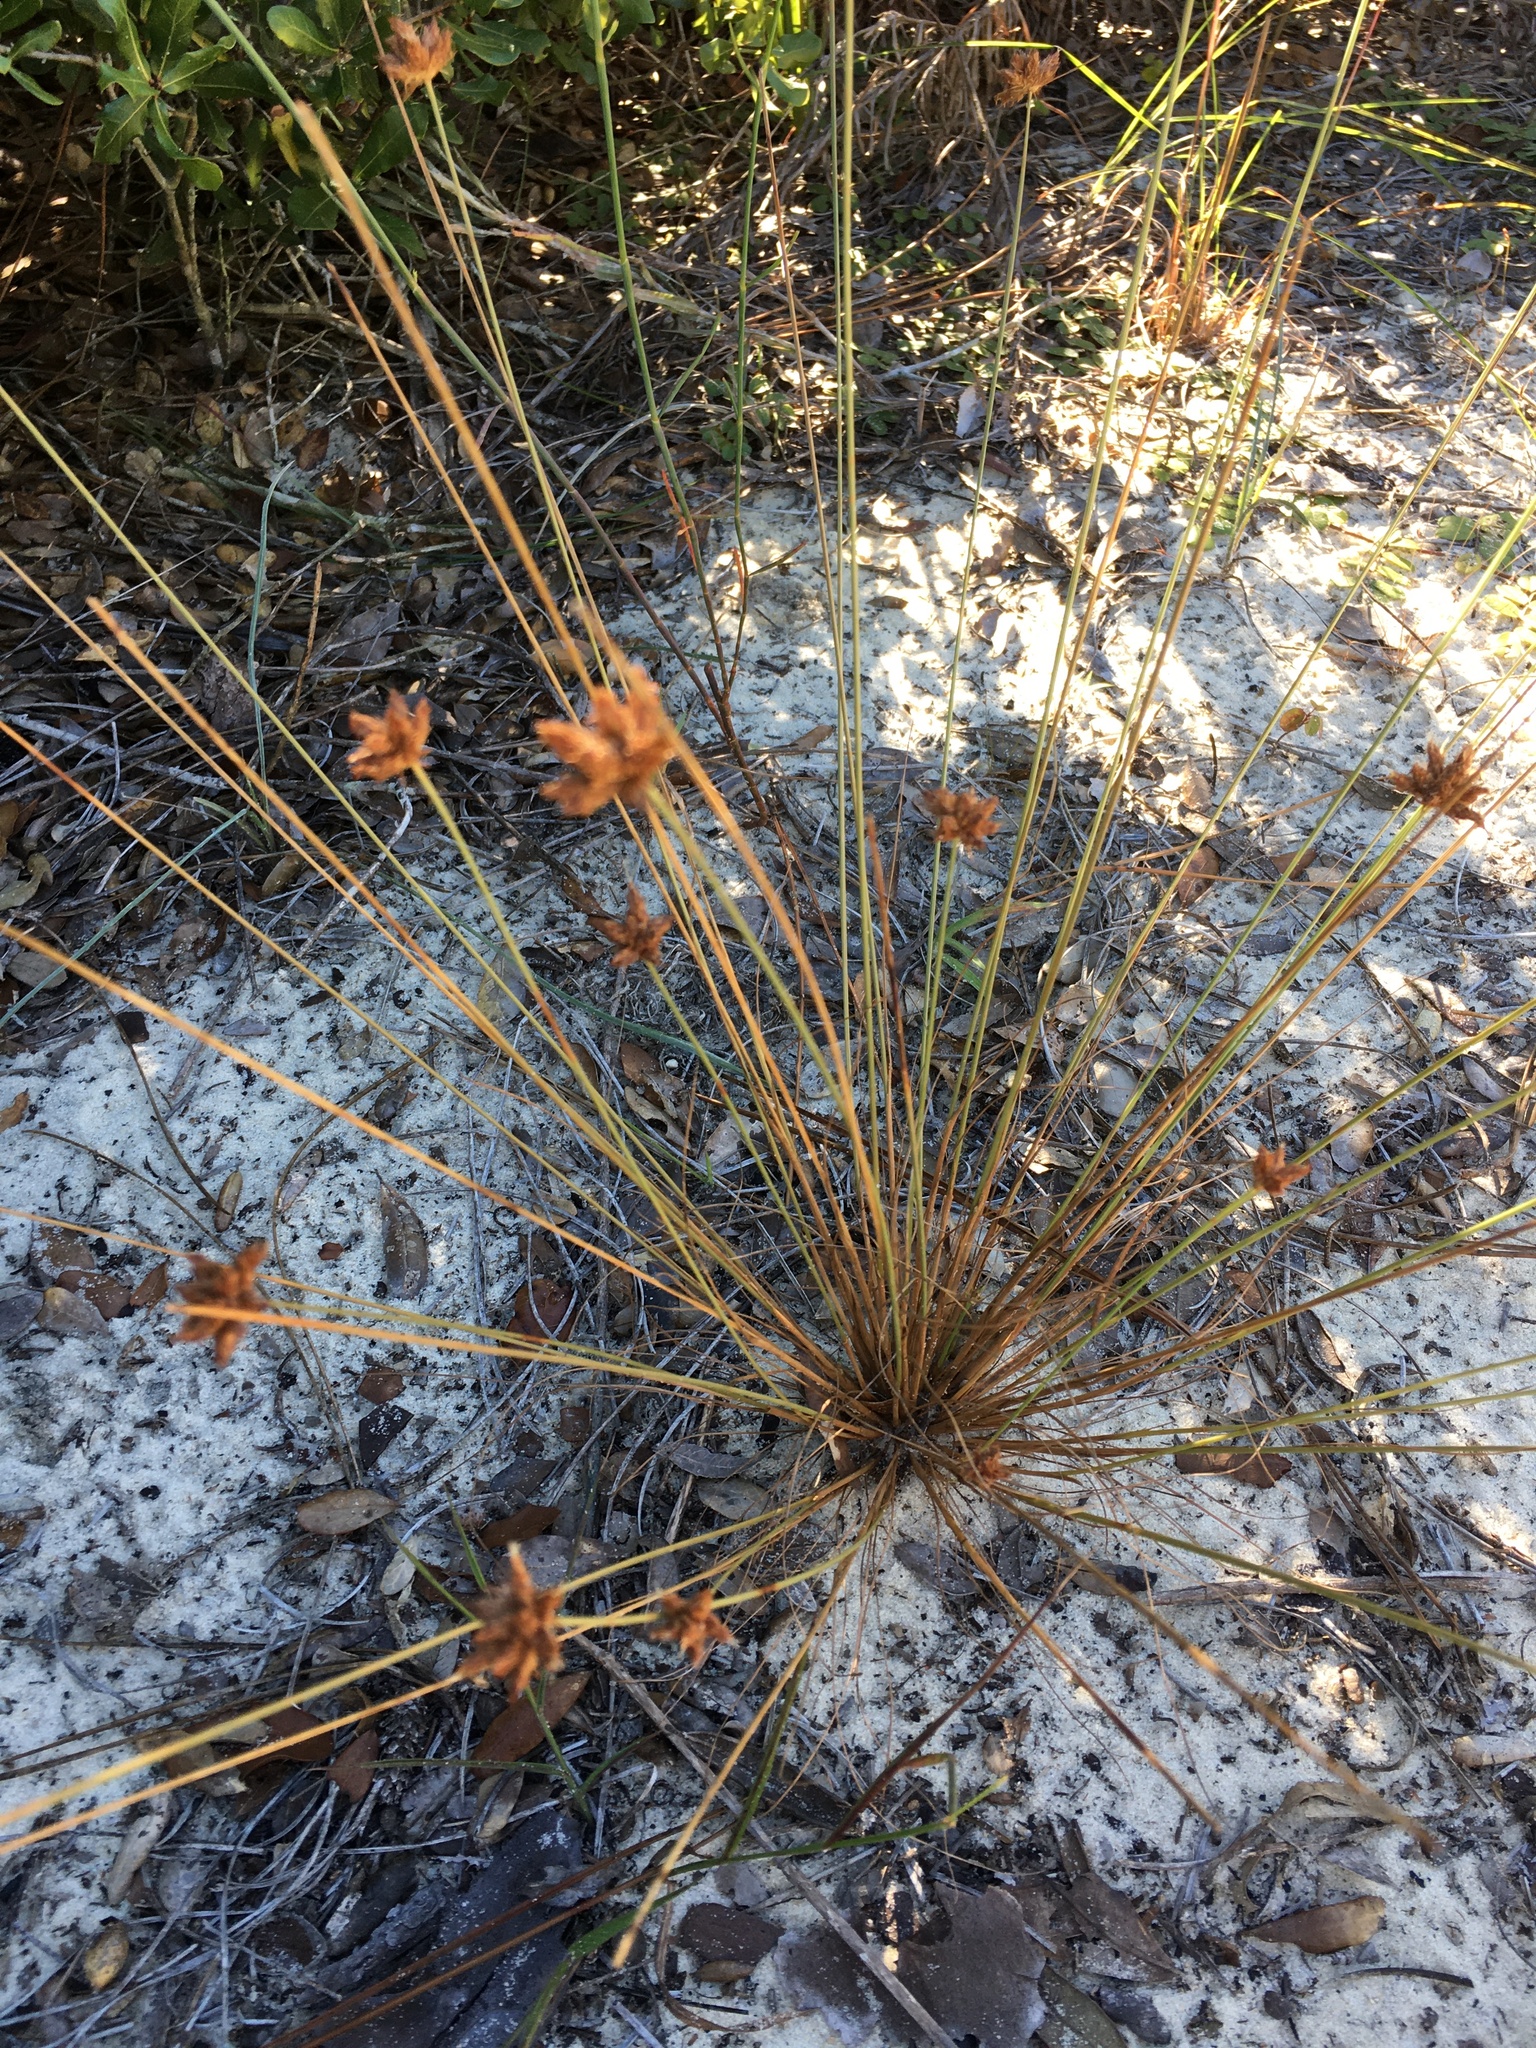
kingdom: Plantae
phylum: Tracheophyta
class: Liliopsida
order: Poales
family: Cyperaceae
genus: Bulbostylis
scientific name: Bulbostylis warei
